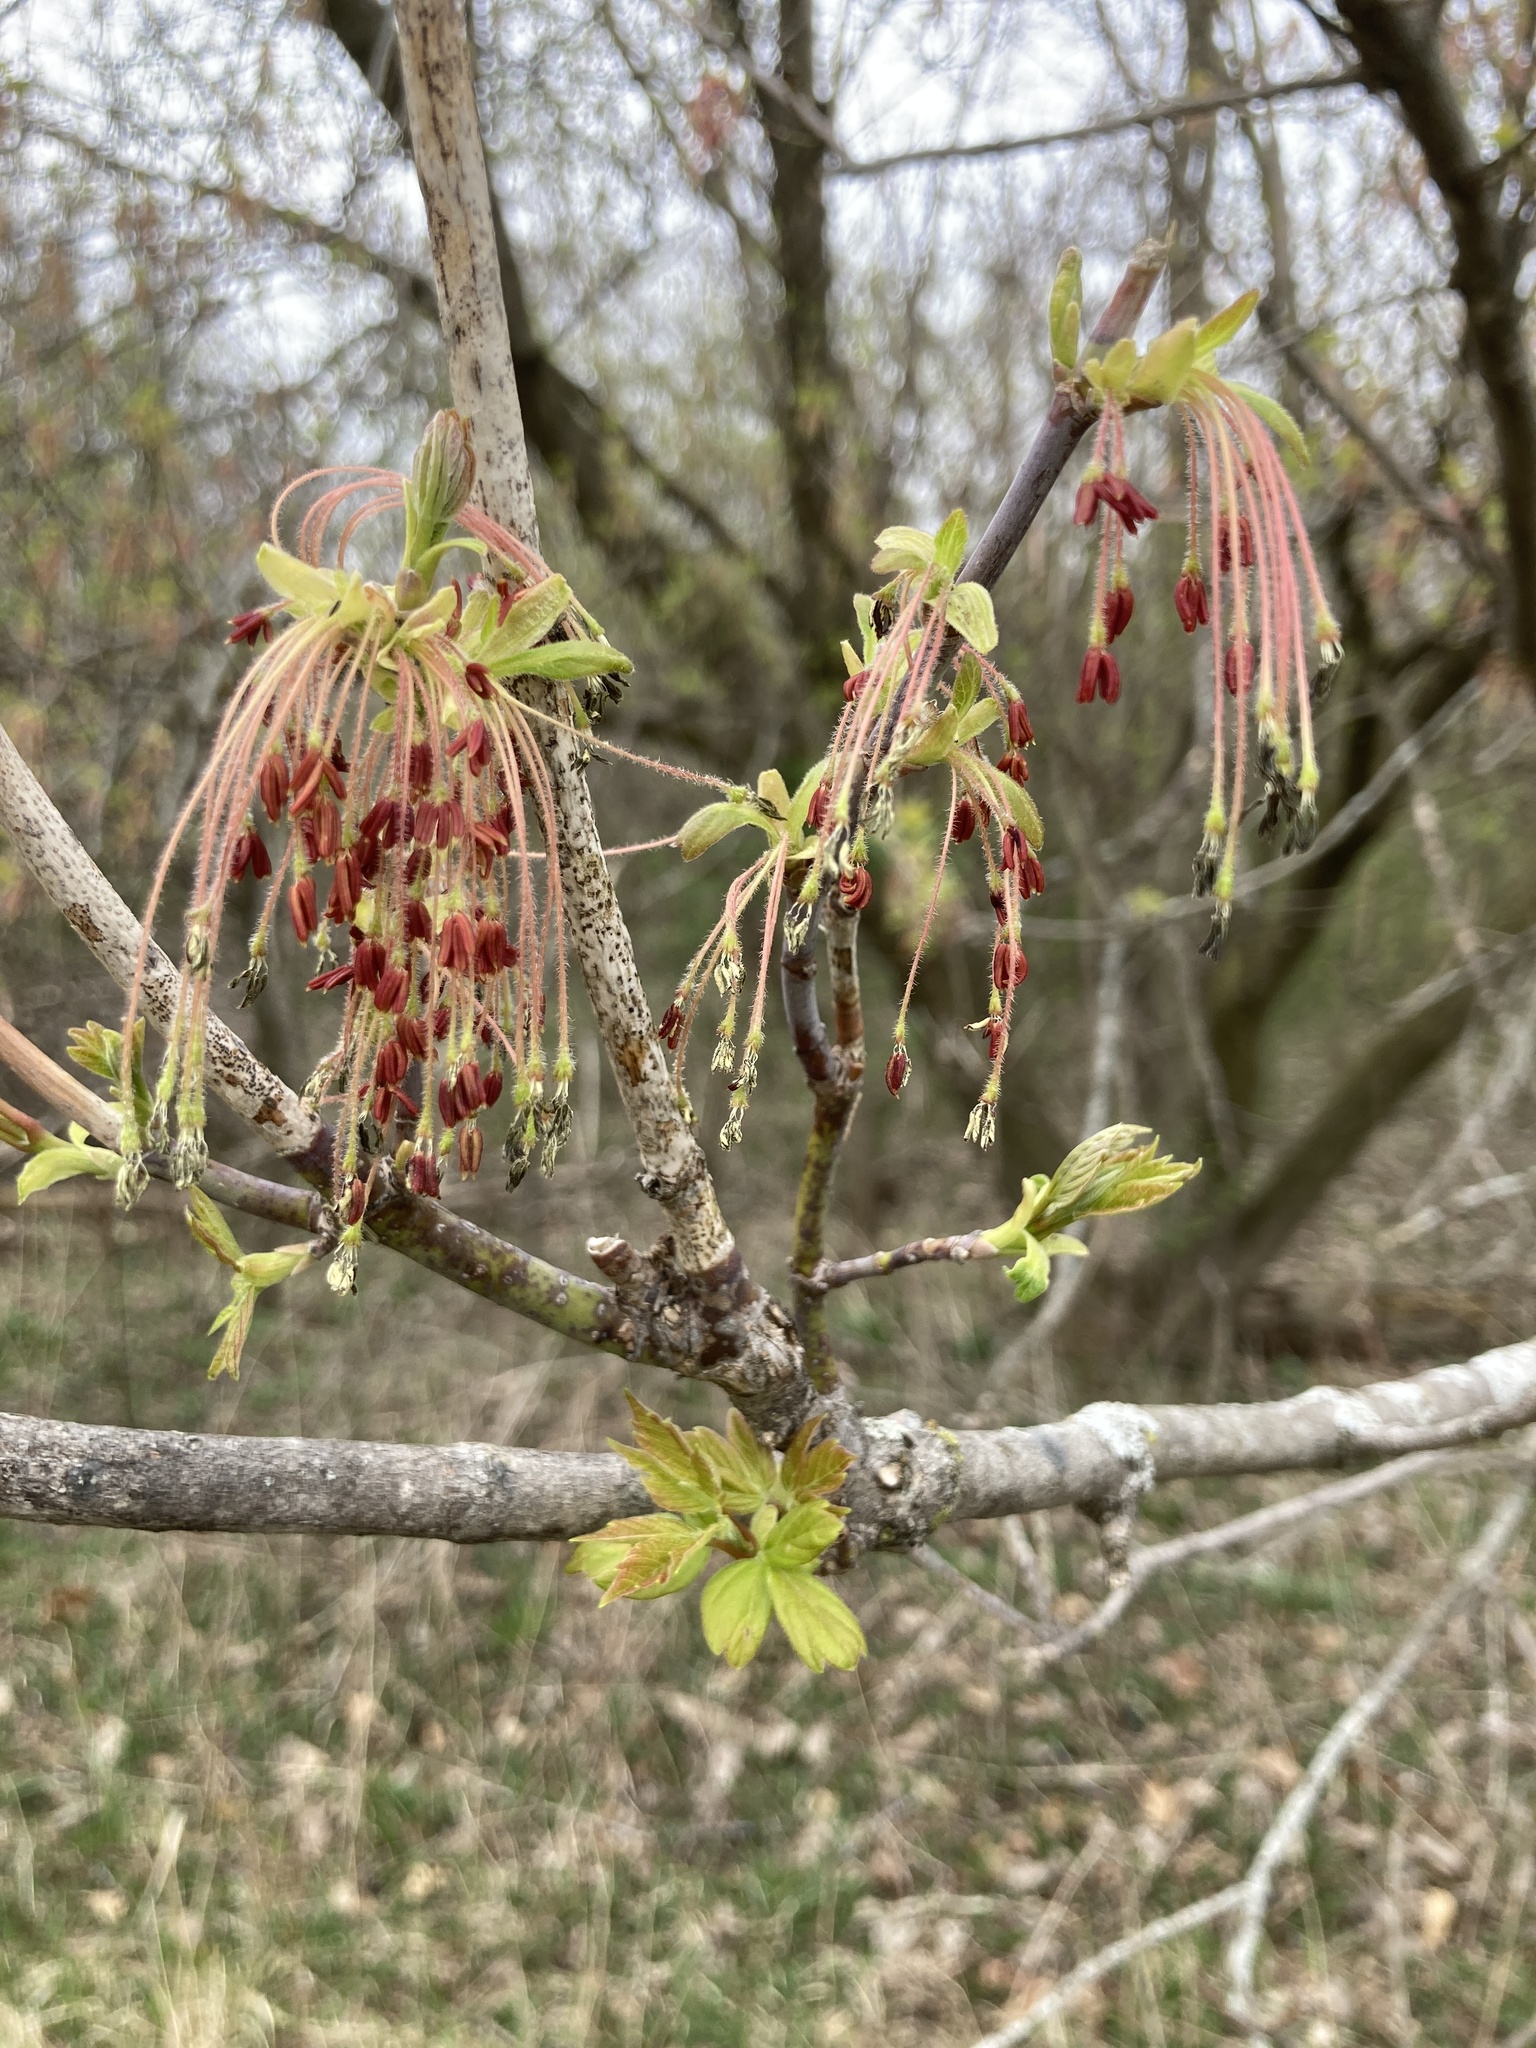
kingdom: Plantae
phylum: Tracheophyta
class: Magnoliopsida
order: Sapindales
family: Sapindaceae
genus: Acer
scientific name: Acer negundo
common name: Ashleaf maple
